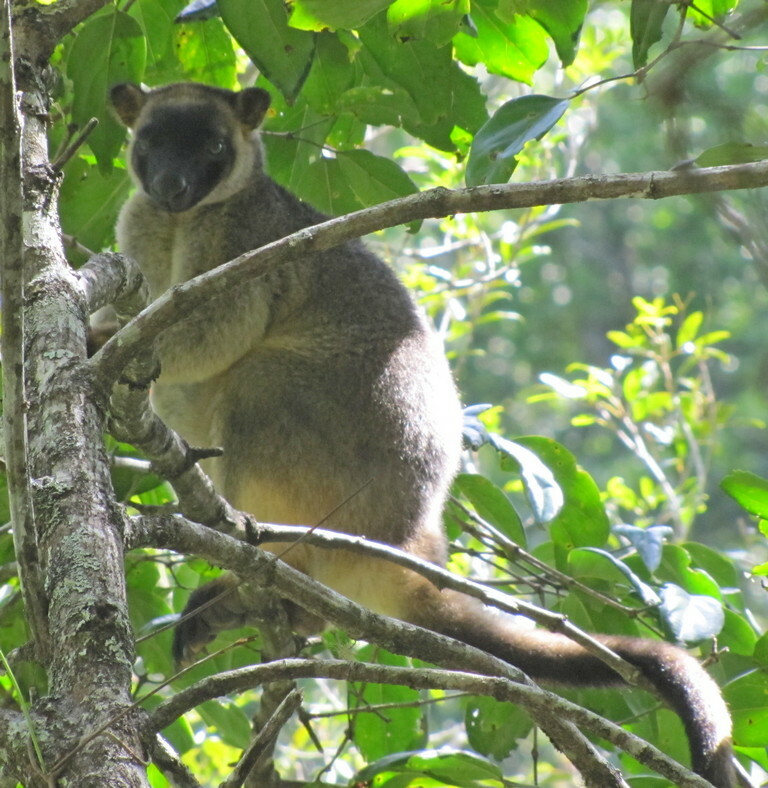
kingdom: Animalia
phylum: Chordata
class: Mammalia
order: Diprotodontia
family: Macropodidae
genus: Dendrolagus
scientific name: Dendrolagus lumholtzi
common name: Lumholtz's tree kangaroo
